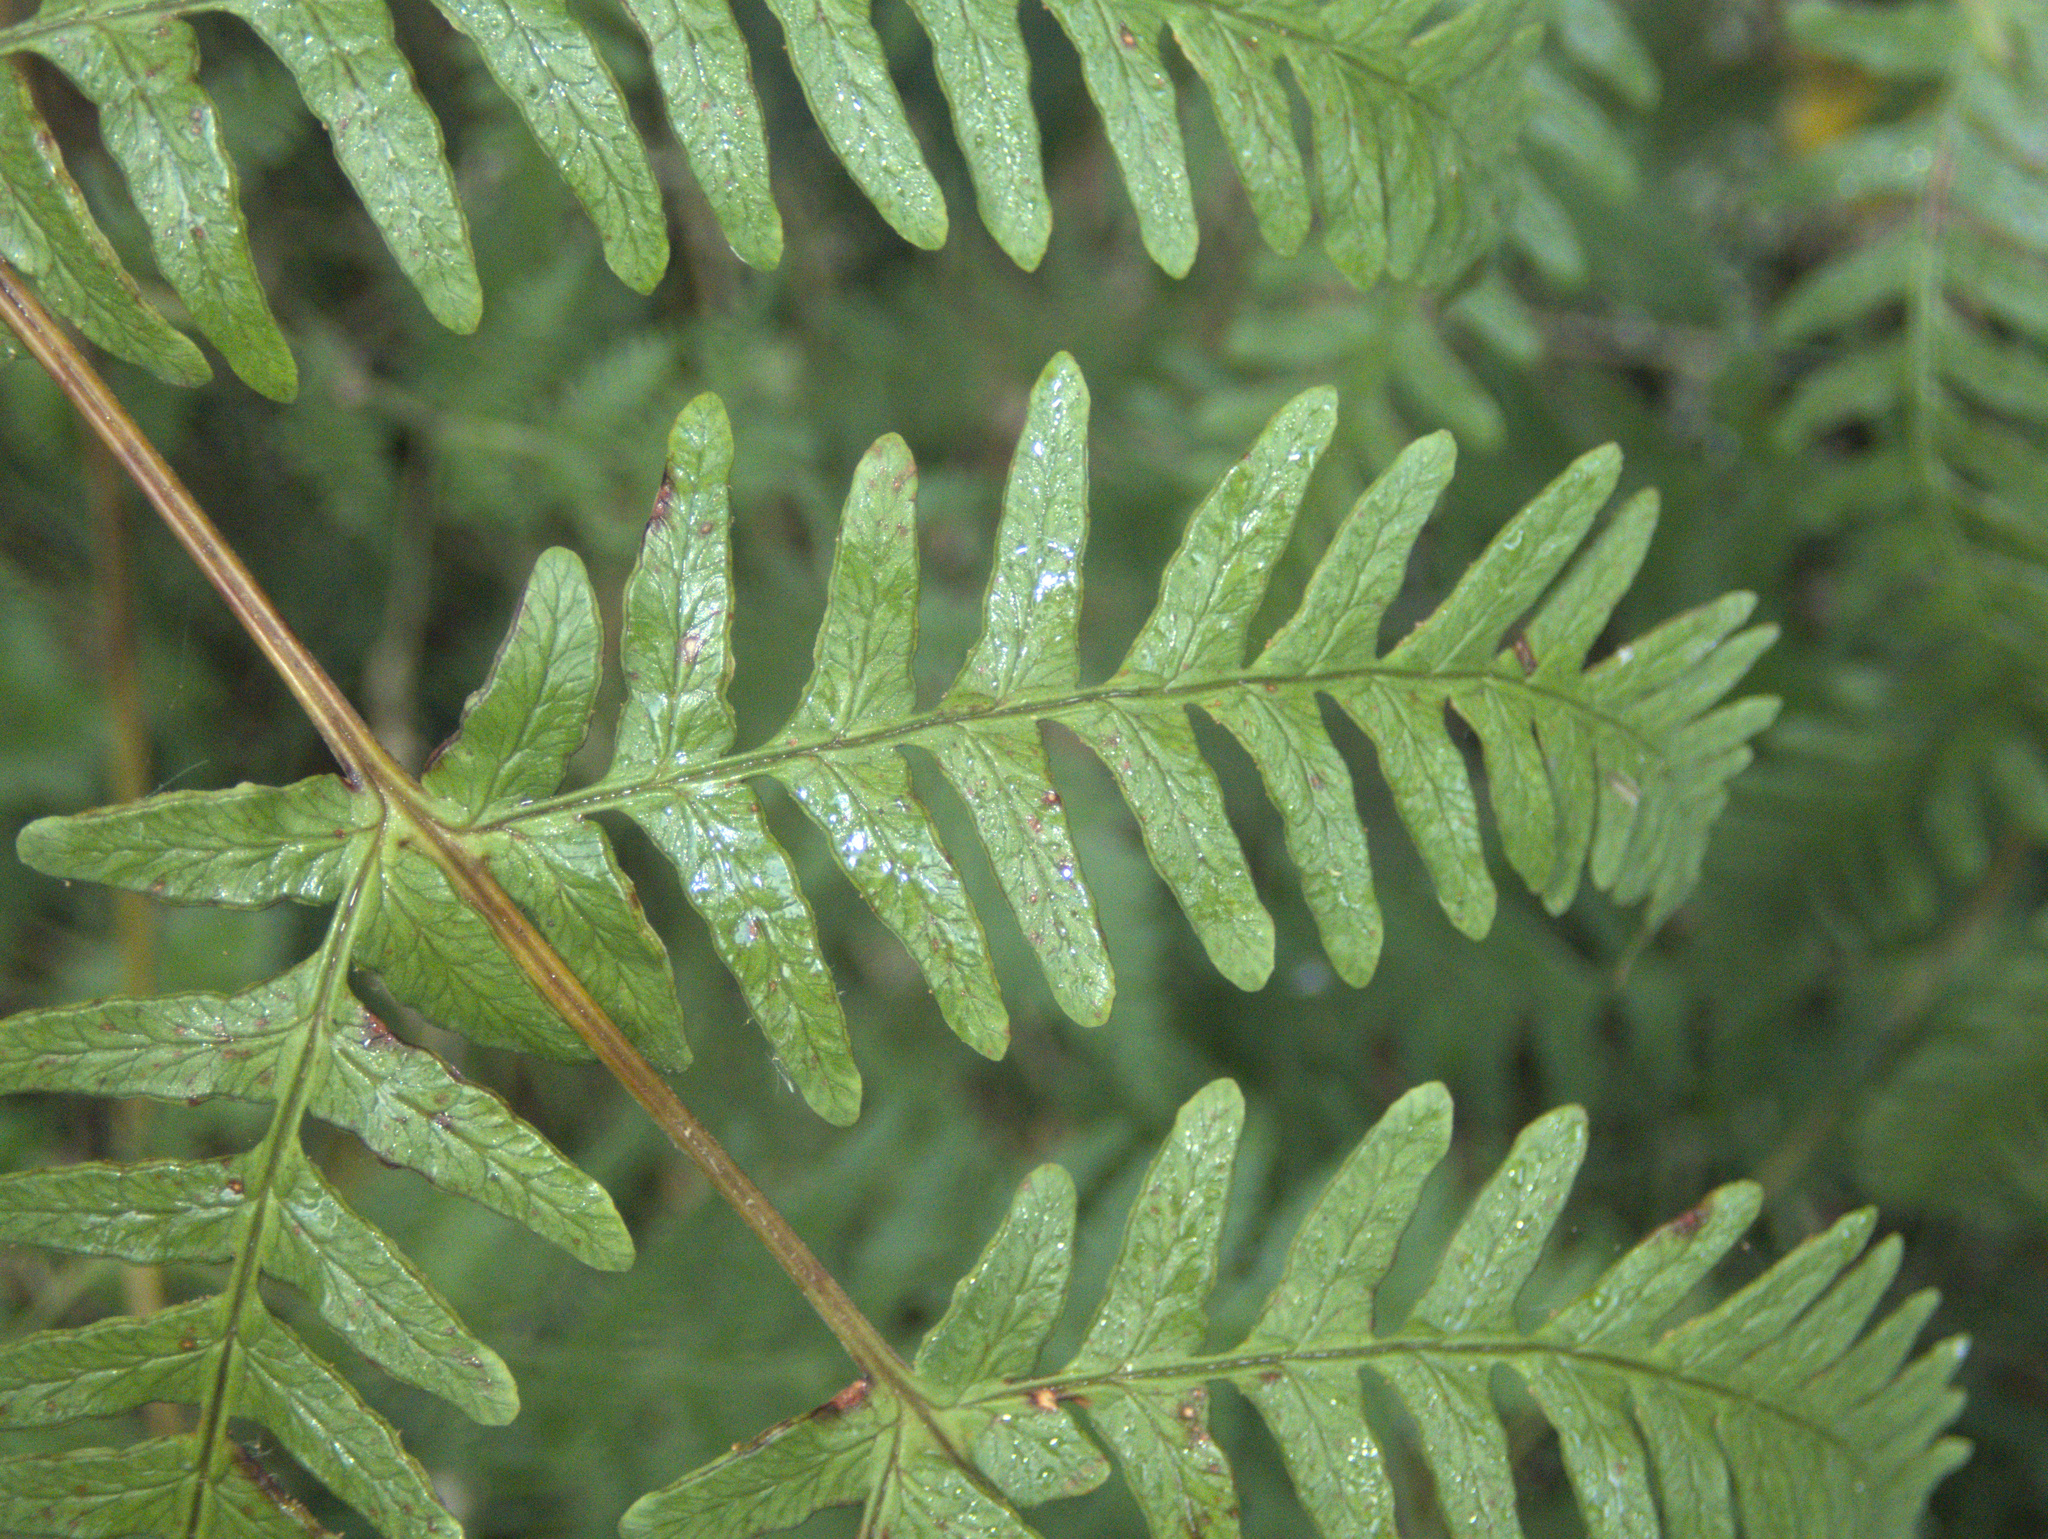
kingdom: Plantae
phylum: Tracheophyta
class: Polypodiopsida
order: Polypodiales
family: Dennstaedtiaceae
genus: Histiopteris
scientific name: Histiopteris incisa
